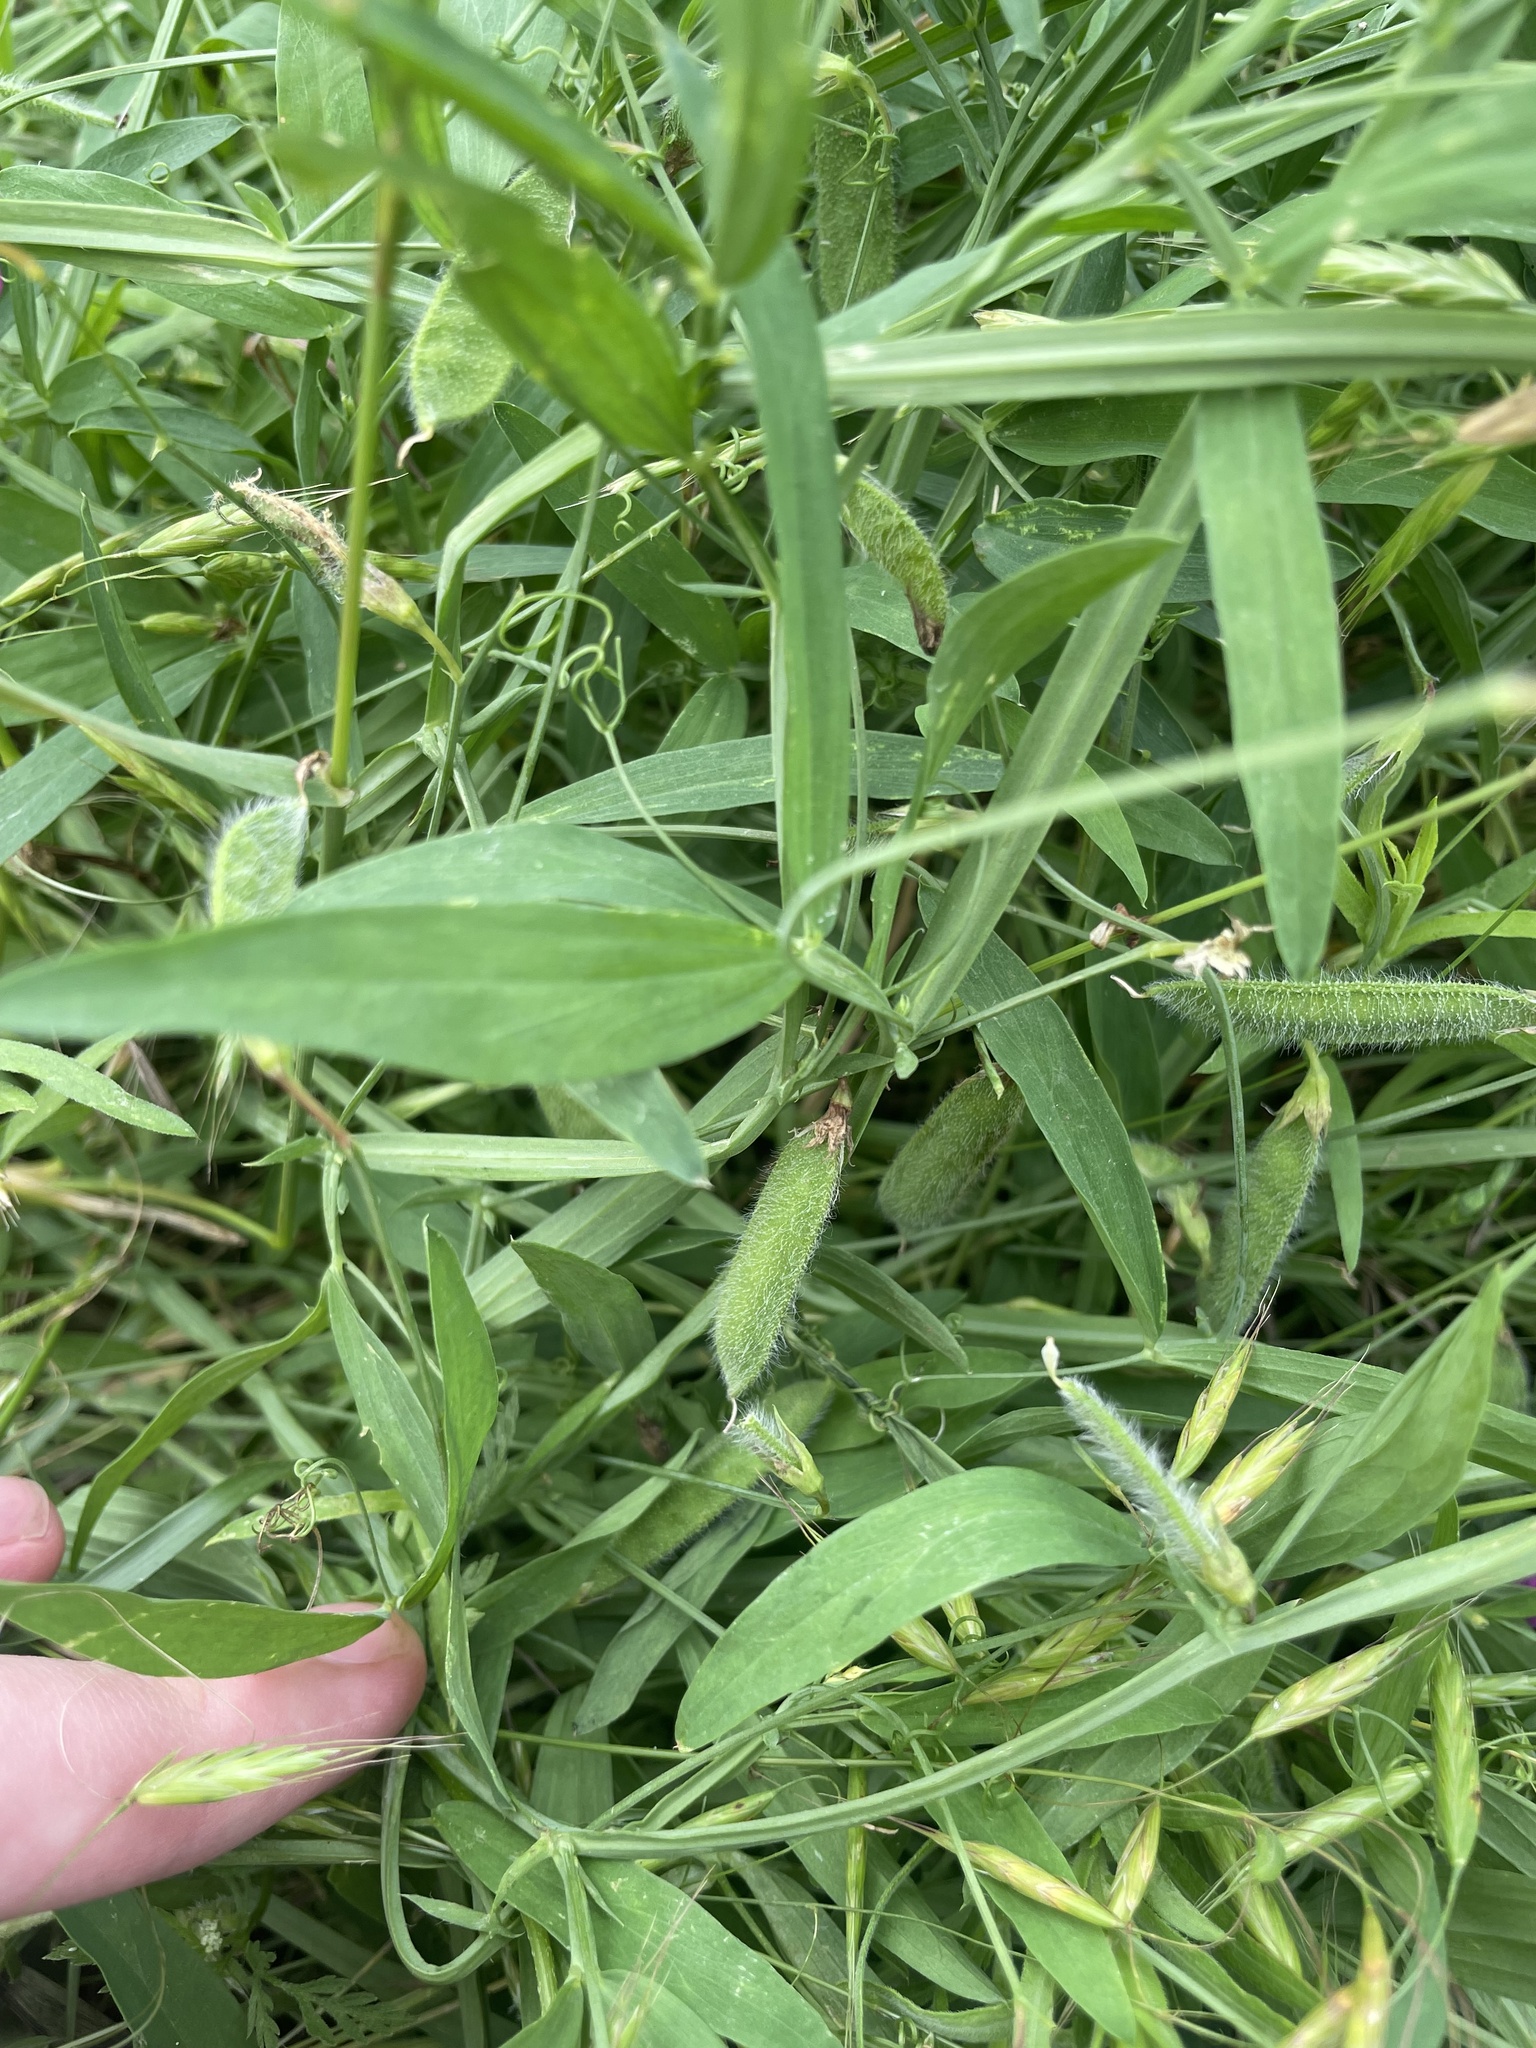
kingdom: Plantae
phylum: Tracheophyta
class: Magnoliopsida
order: Fabales
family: Fabaceae
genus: Lathyrus
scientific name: Lathyrus hirsutus
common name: Hairy vetchling
